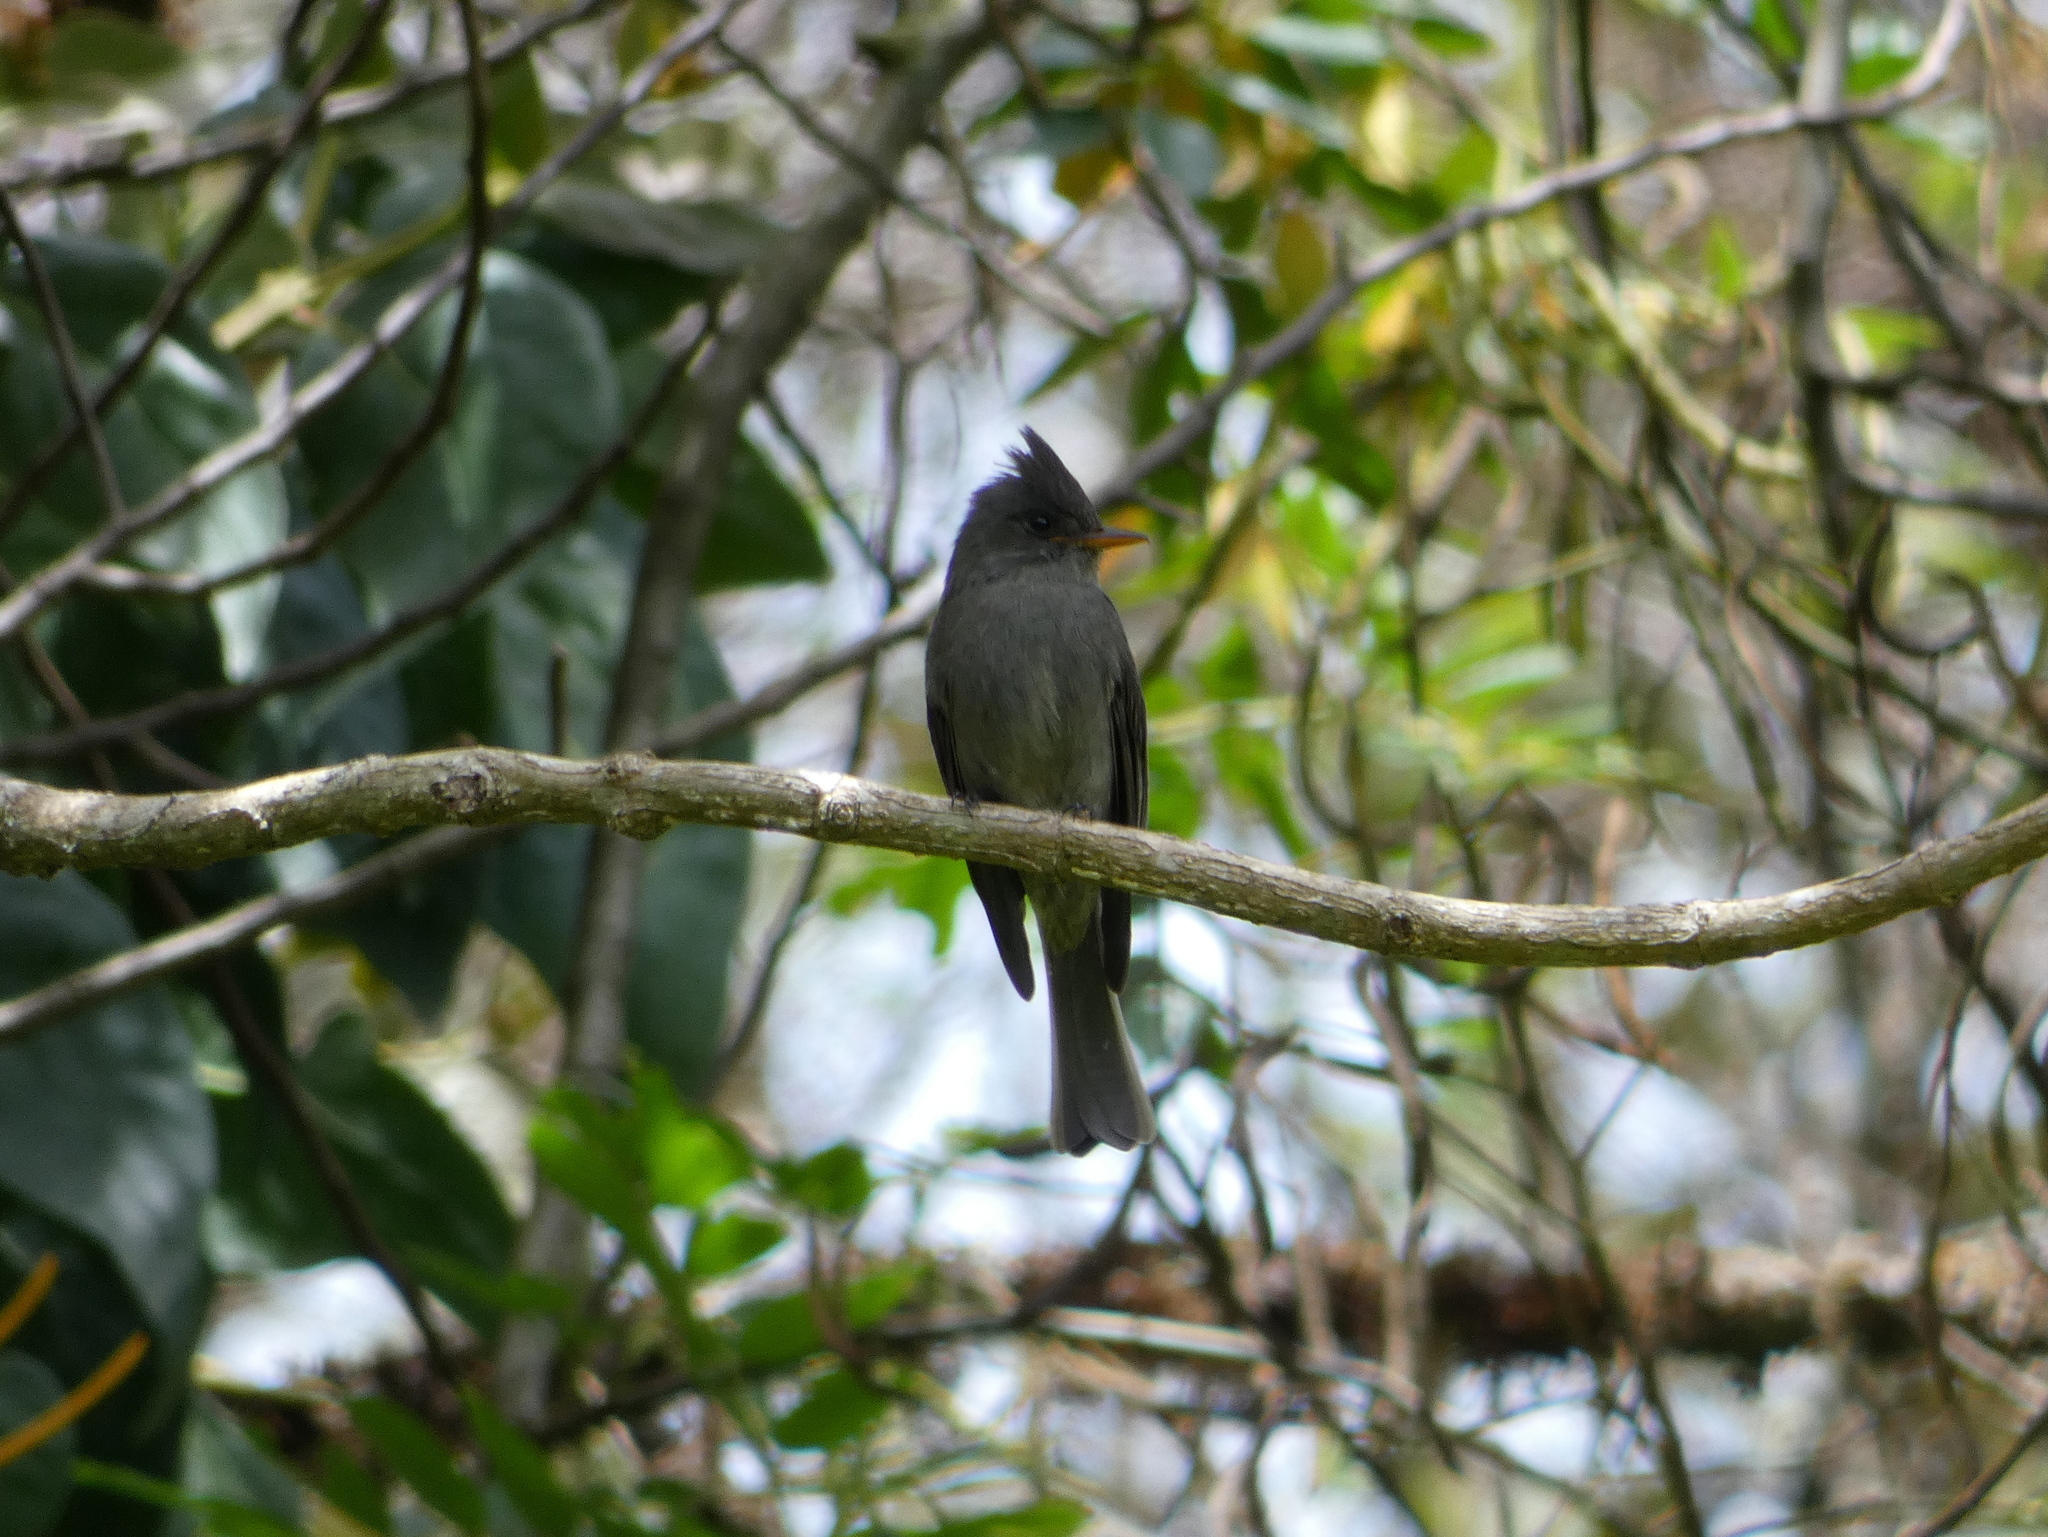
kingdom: Animalia
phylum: Chordata
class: Aves
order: Passeriformes
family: Tyrannidae
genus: Contopus
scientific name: Contopus lugubris
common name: Dark pewee
